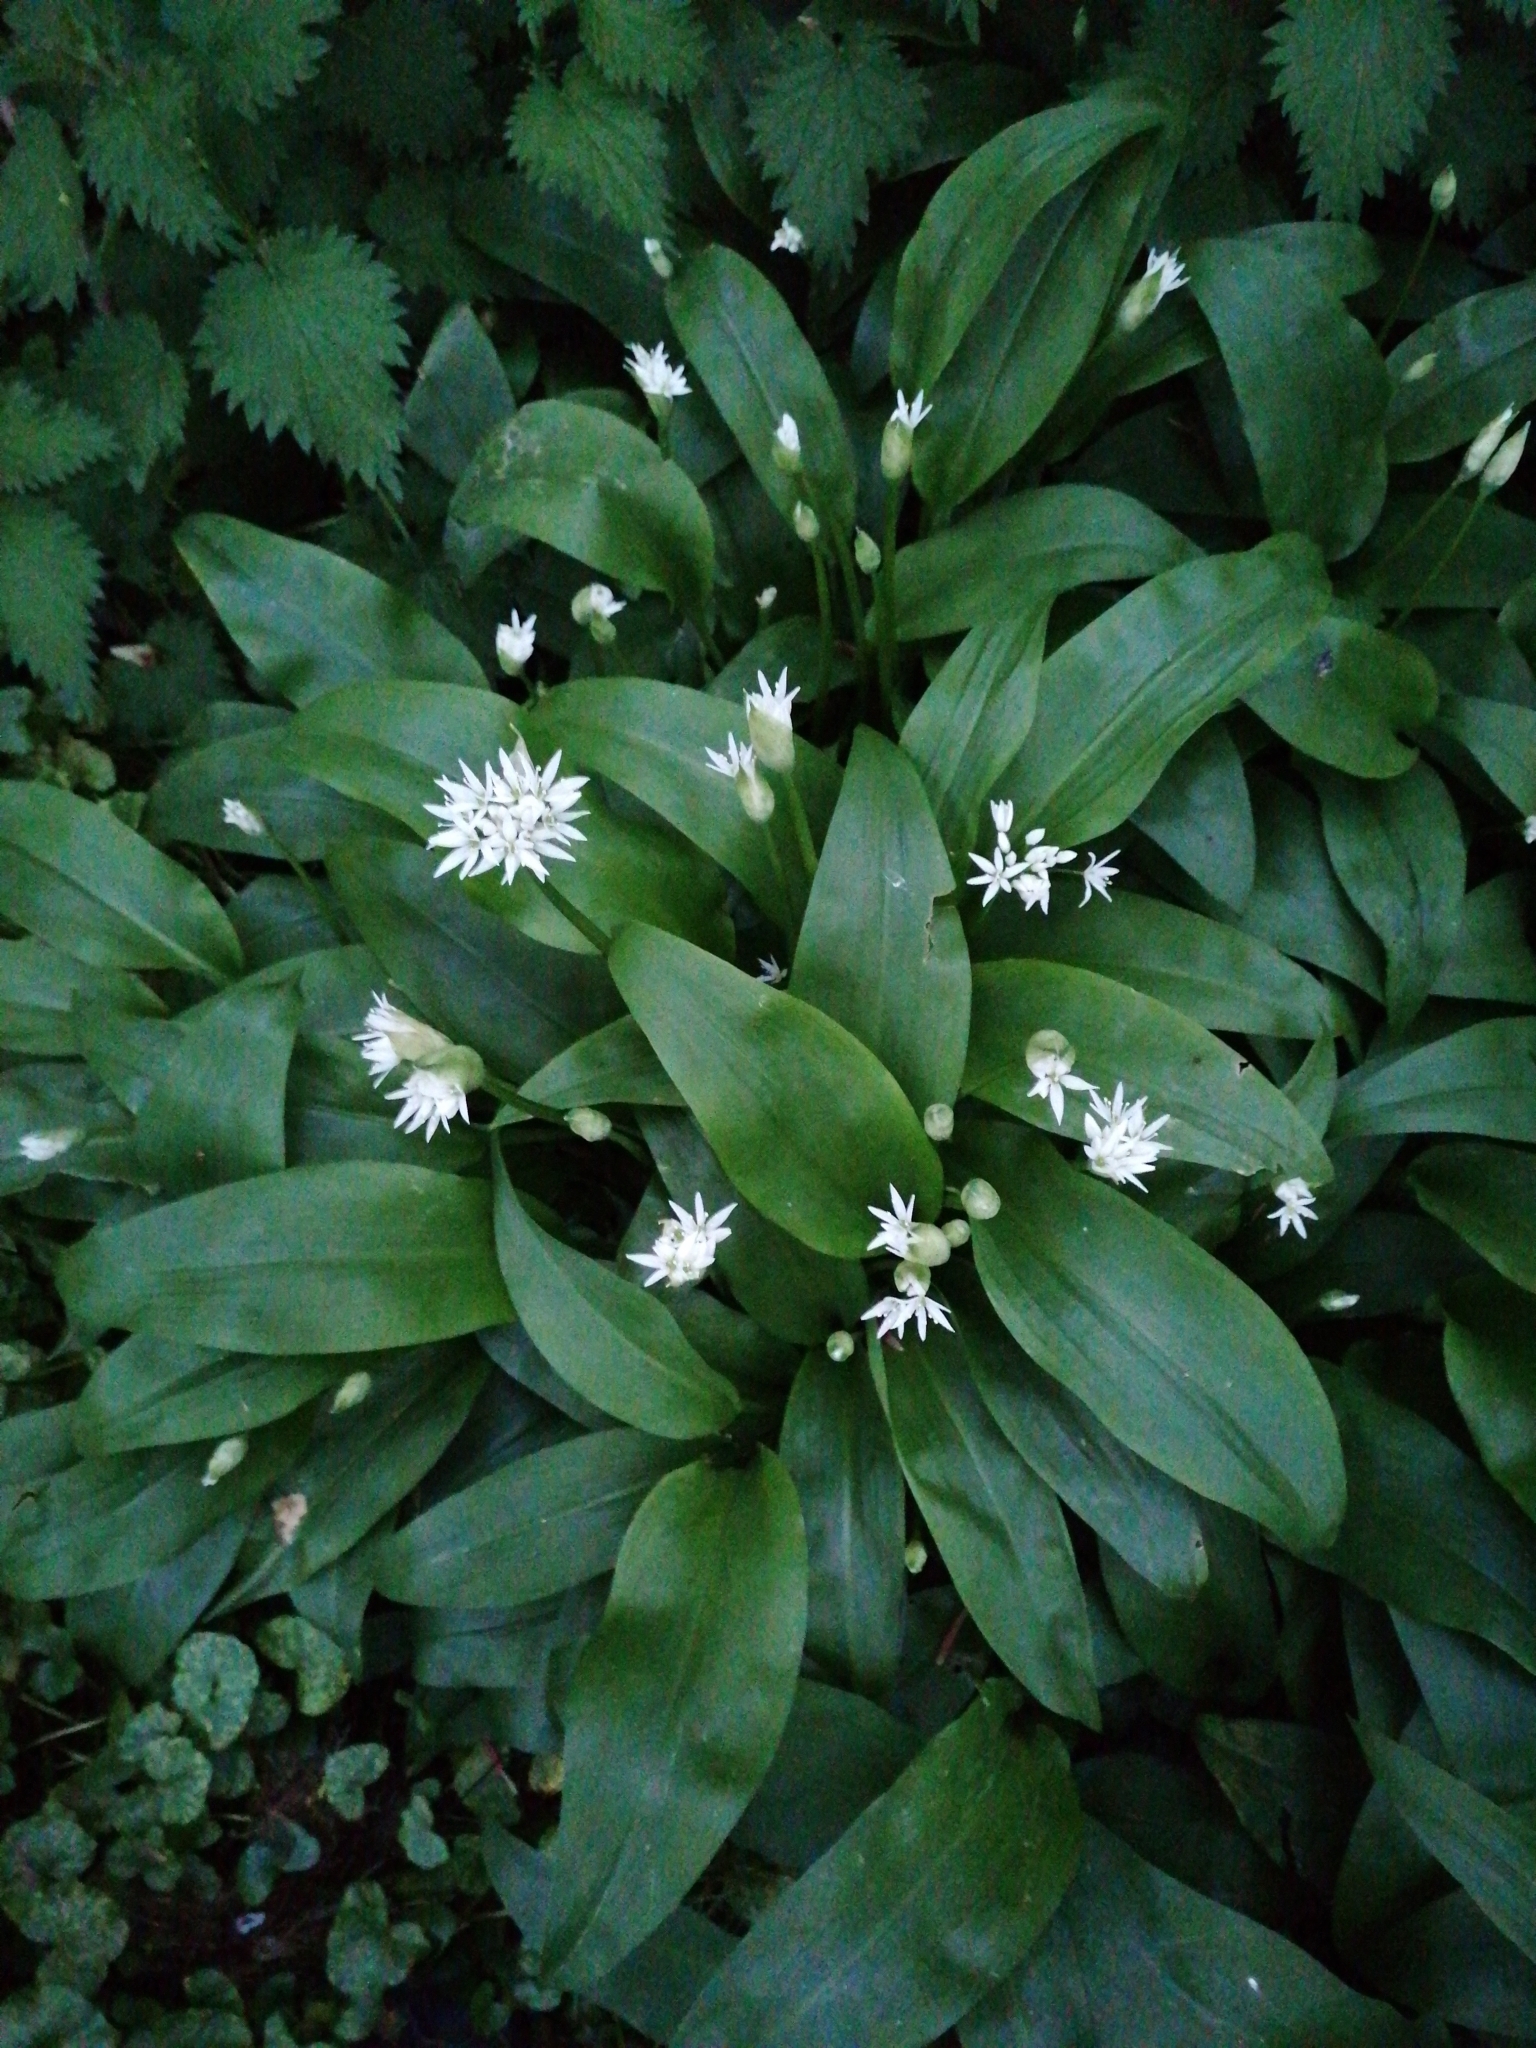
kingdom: Plantae
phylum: Tracheophyta
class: Liliopsida
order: Asparagales
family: Amaryllidaceae
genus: Allium
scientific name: Allium ursinum
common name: Ramsons
